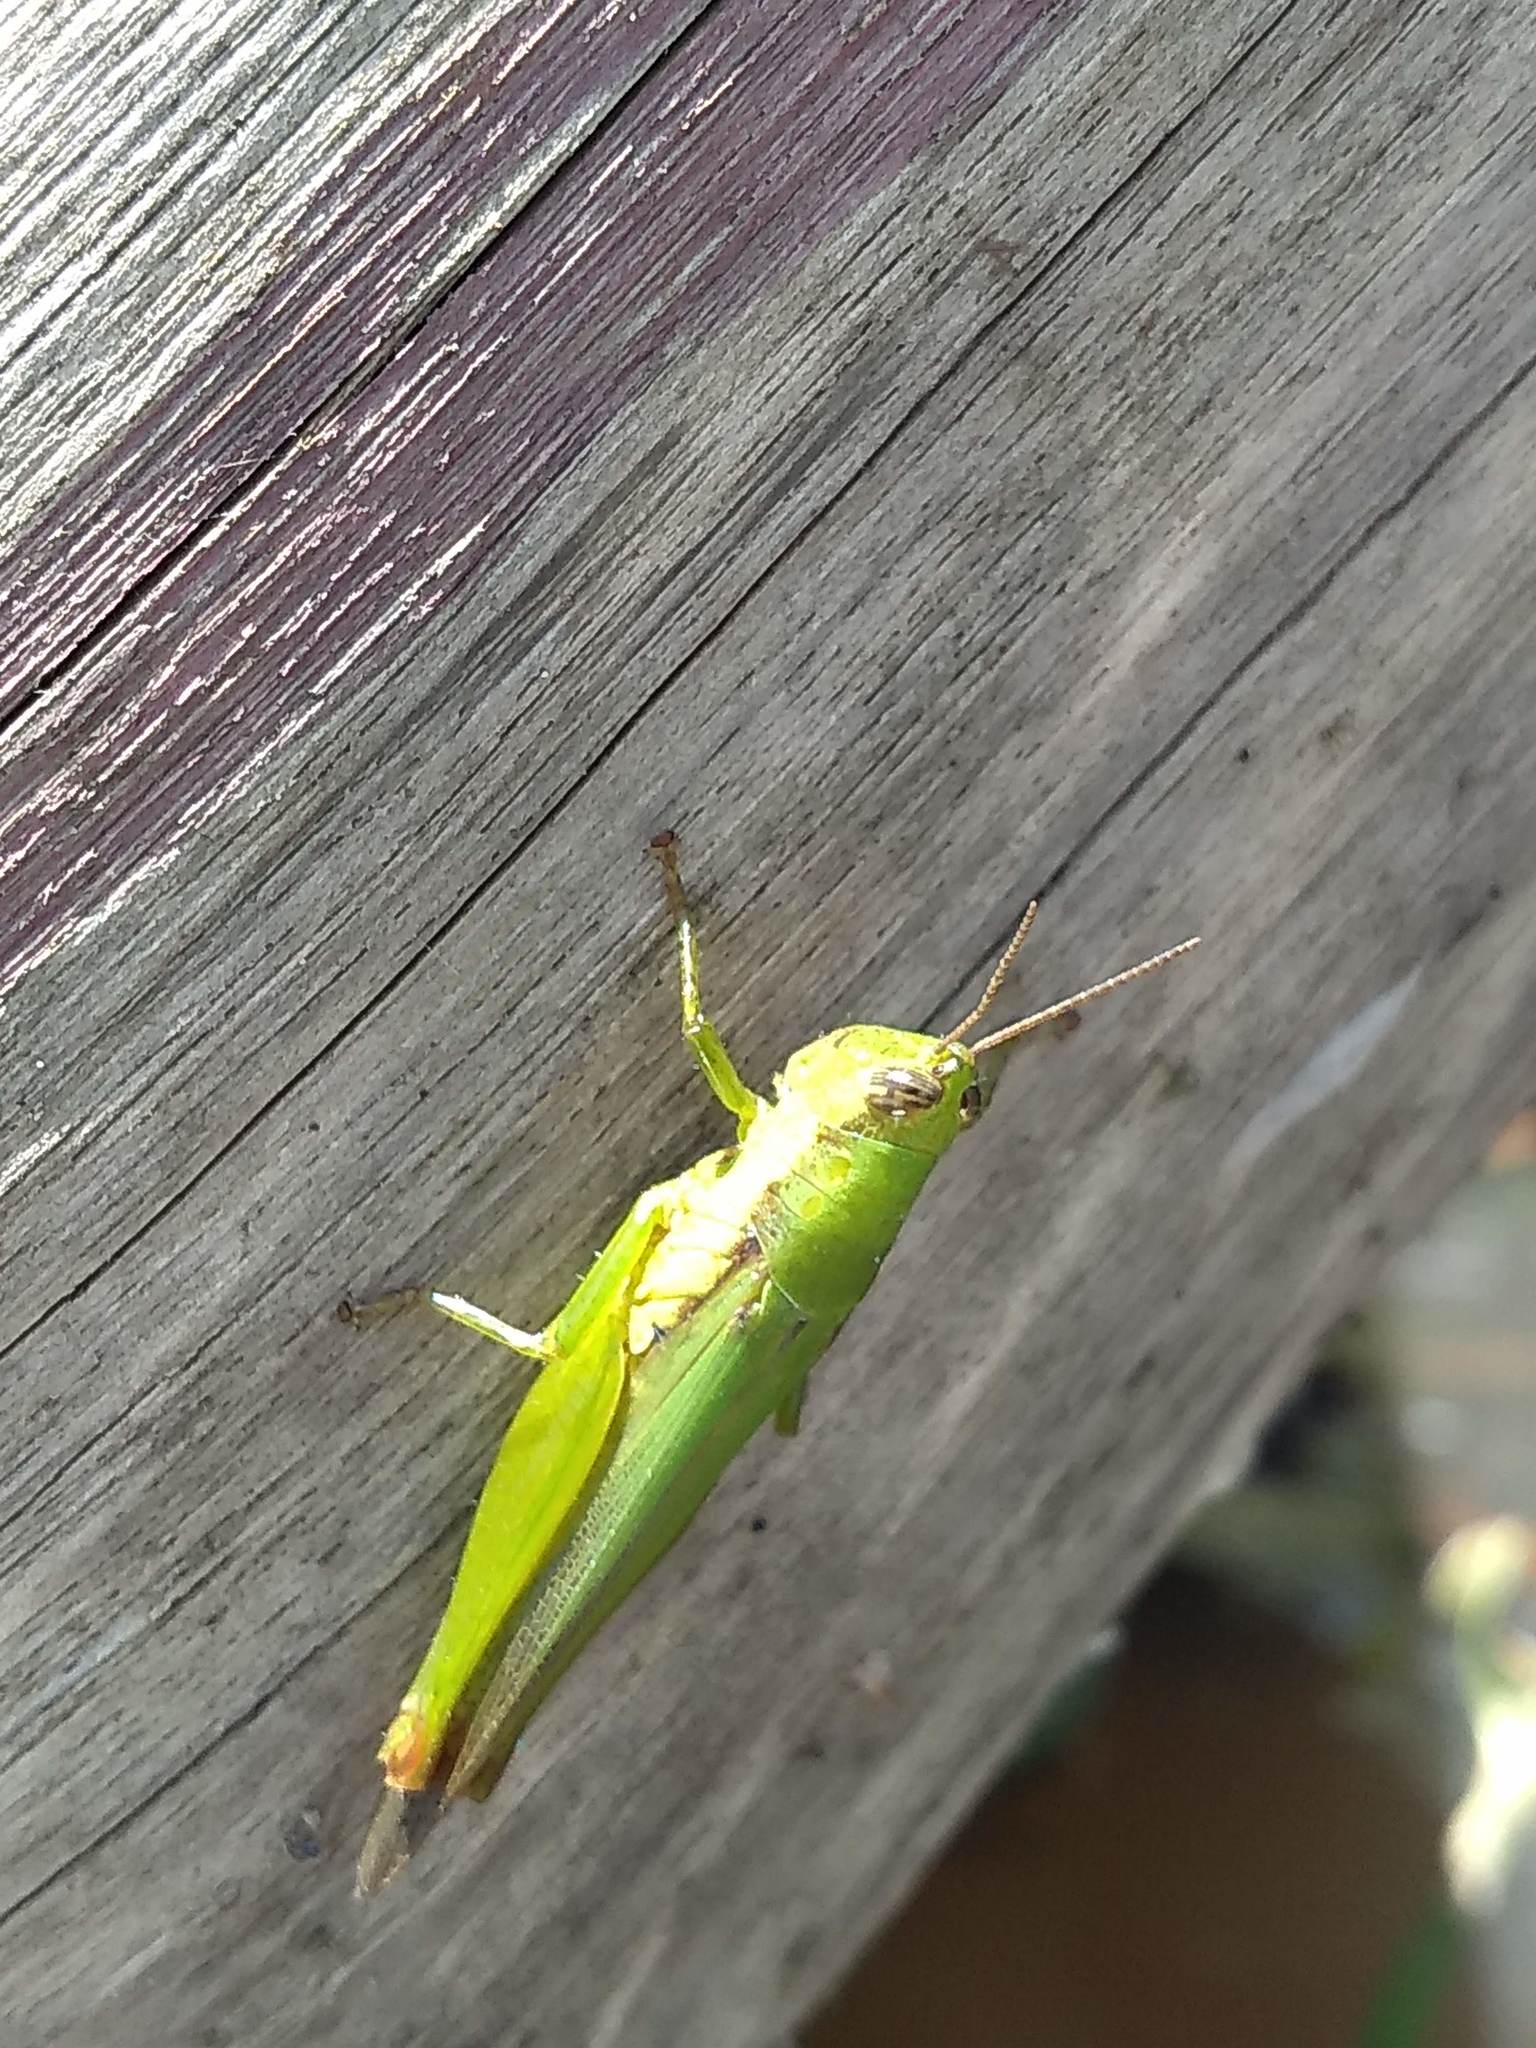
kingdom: Animalia
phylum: Arthropoda
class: Insecta
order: Orthoptera
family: Acrididae
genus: Cornops
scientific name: Cornops aquaticum
